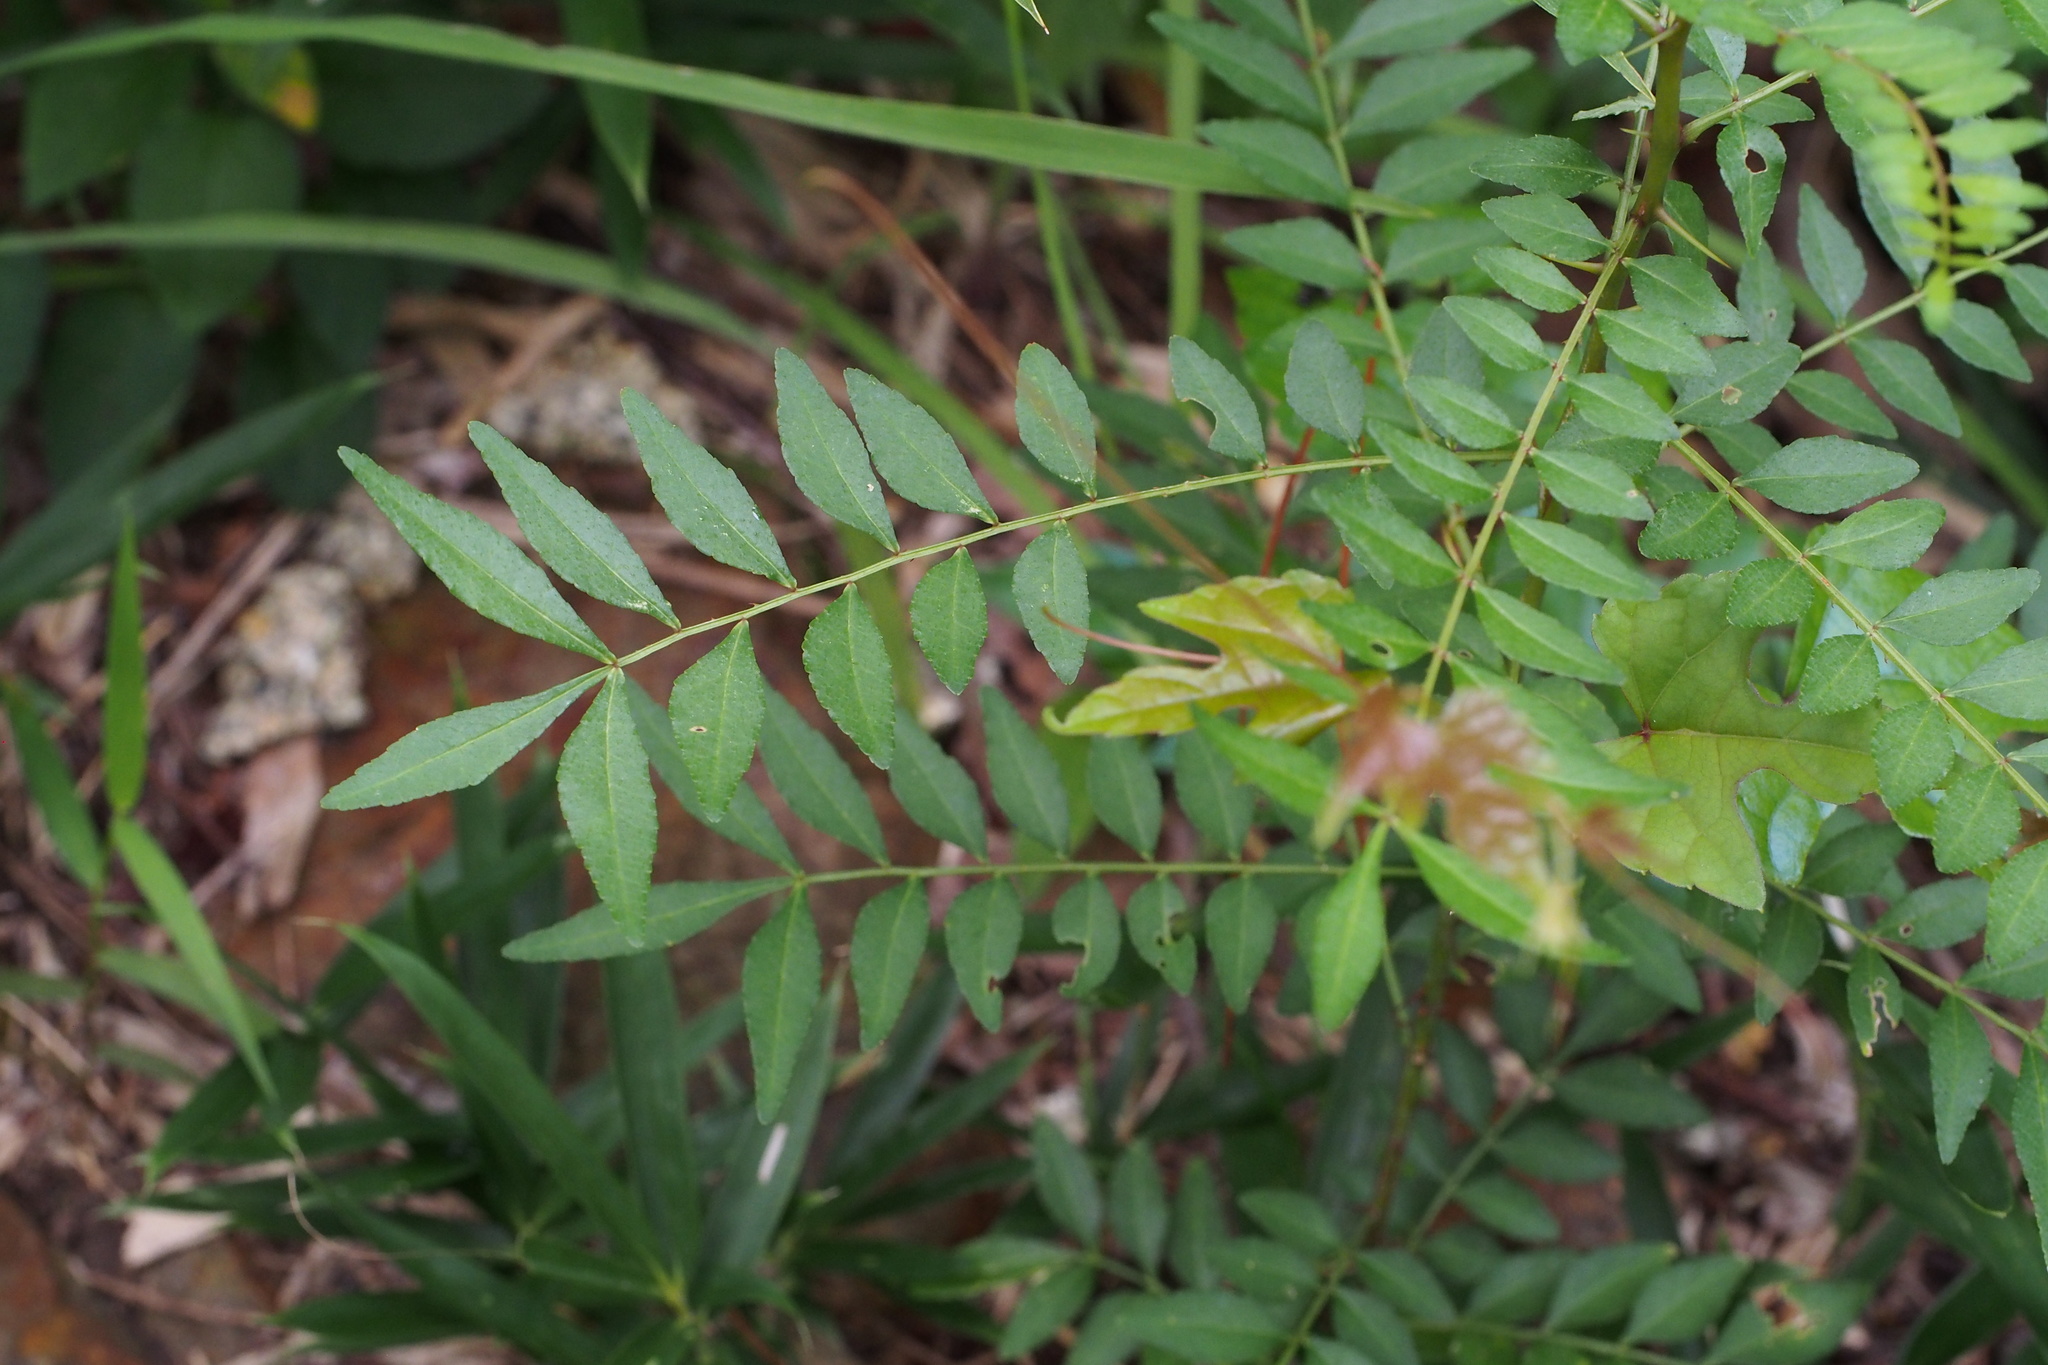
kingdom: Plantae
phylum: Tracheophyta
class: Magnoliopsida
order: Sapindales
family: Rutaceae
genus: Zanthoxylum
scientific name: Zanthoxylum schinifolium
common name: Sichuan-pepper
